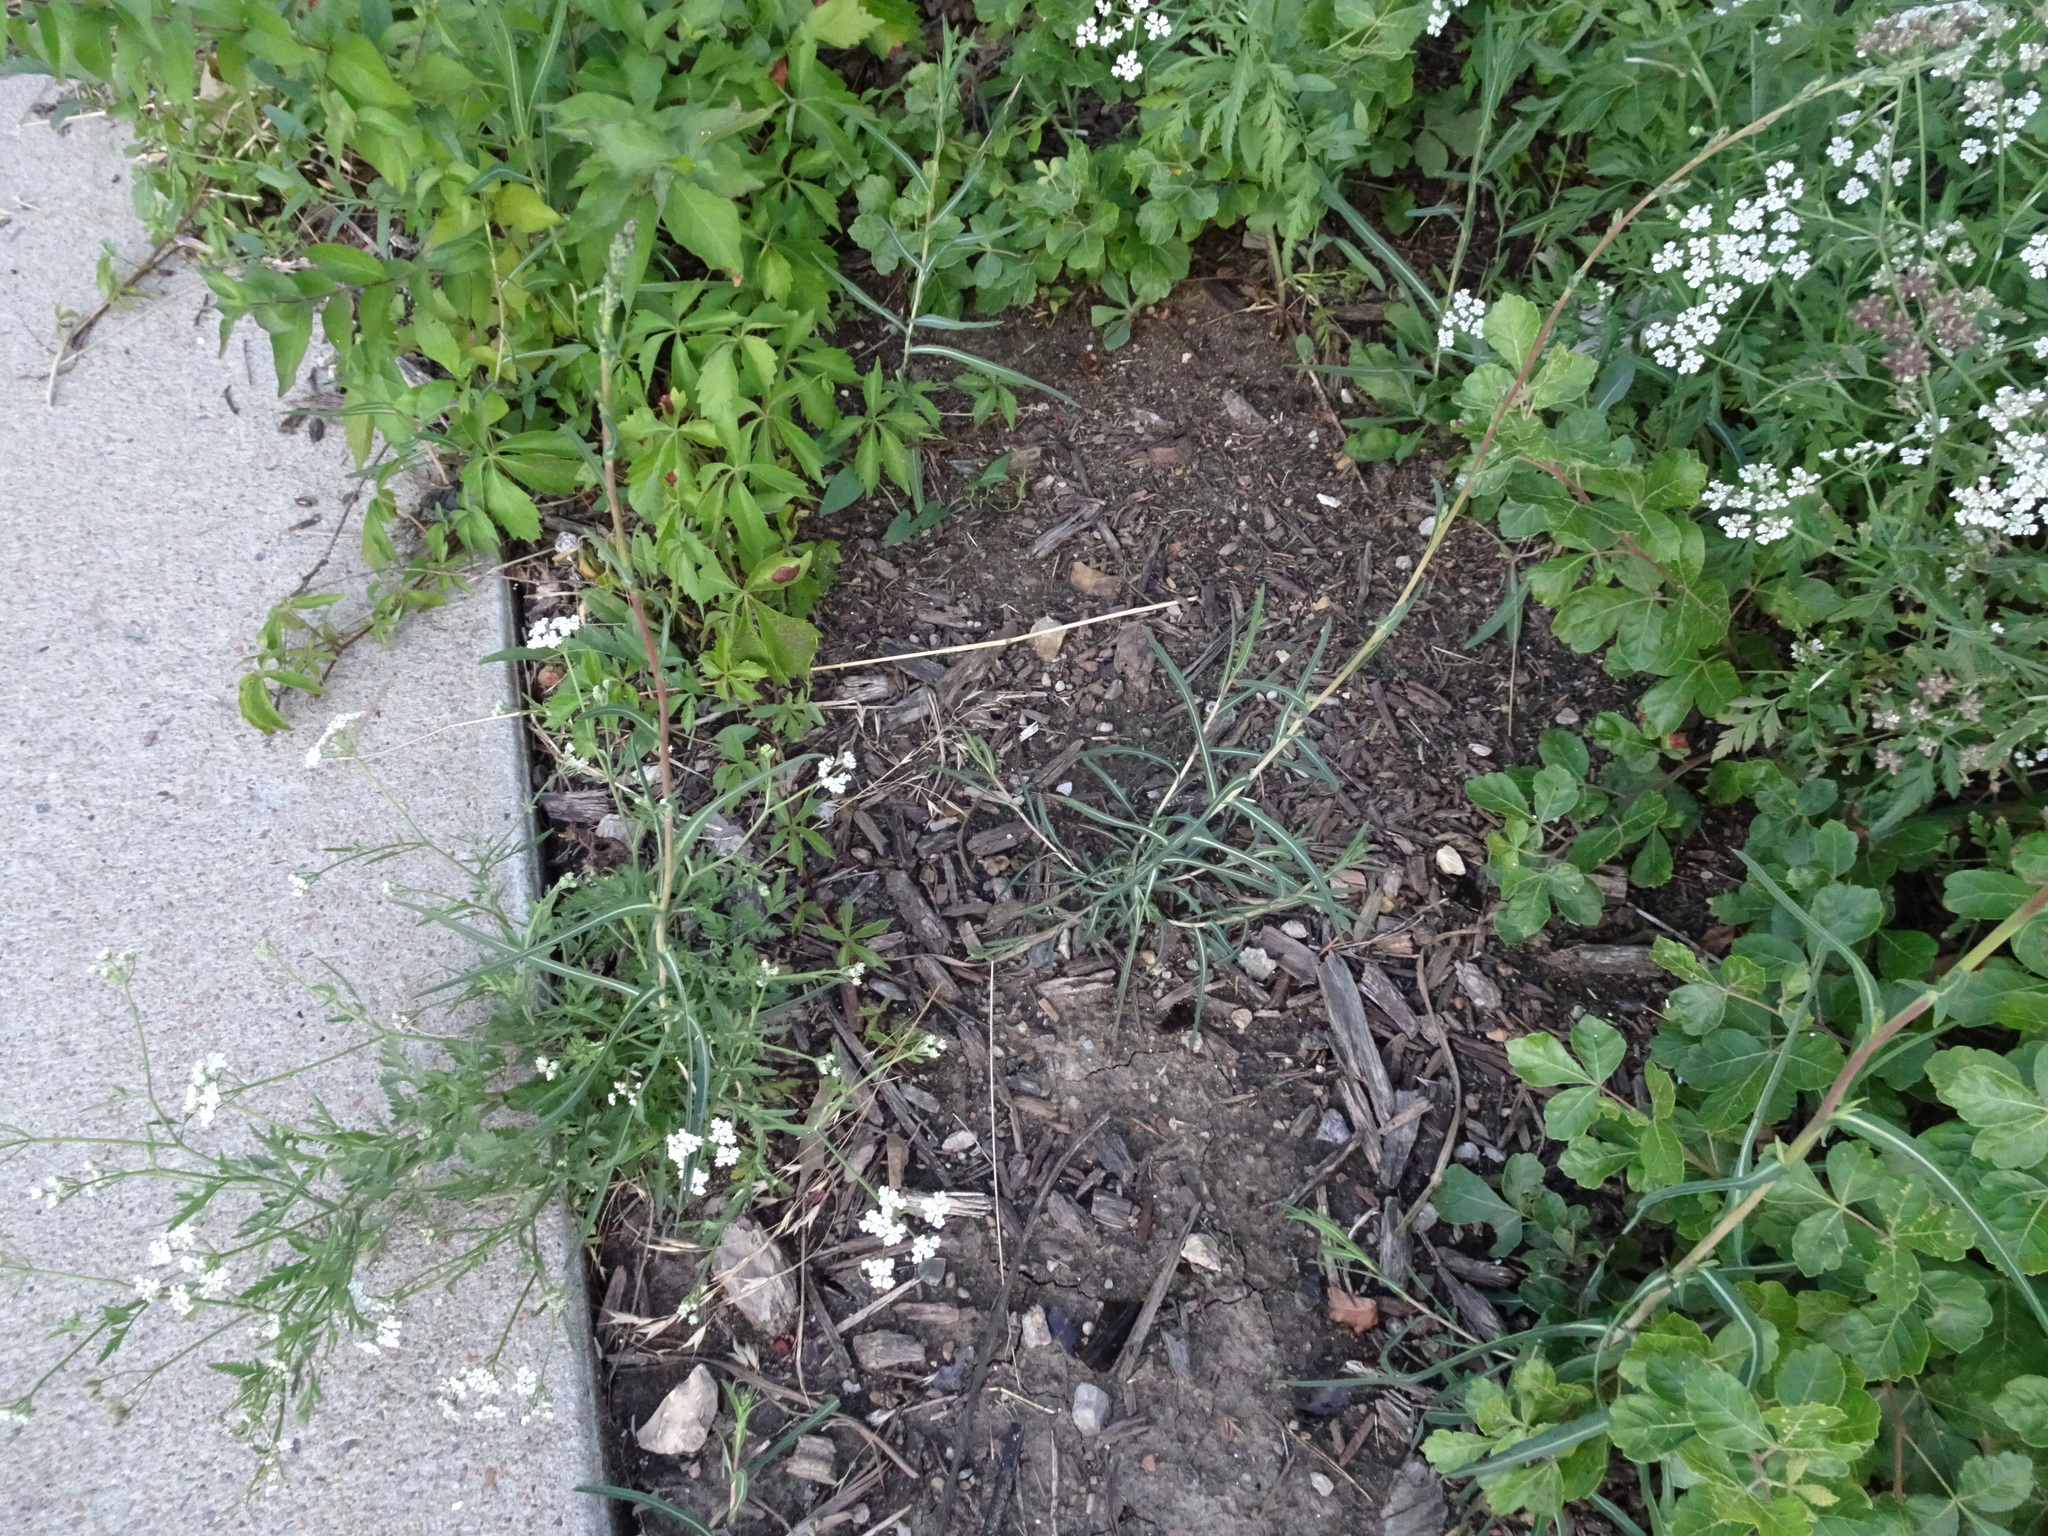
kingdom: Plantae
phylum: Tracheophyta
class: Magnoliopsida
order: Asterales
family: Asteraceae
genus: Lactuca
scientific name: Lactuca saligna
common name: Wild lettuce
